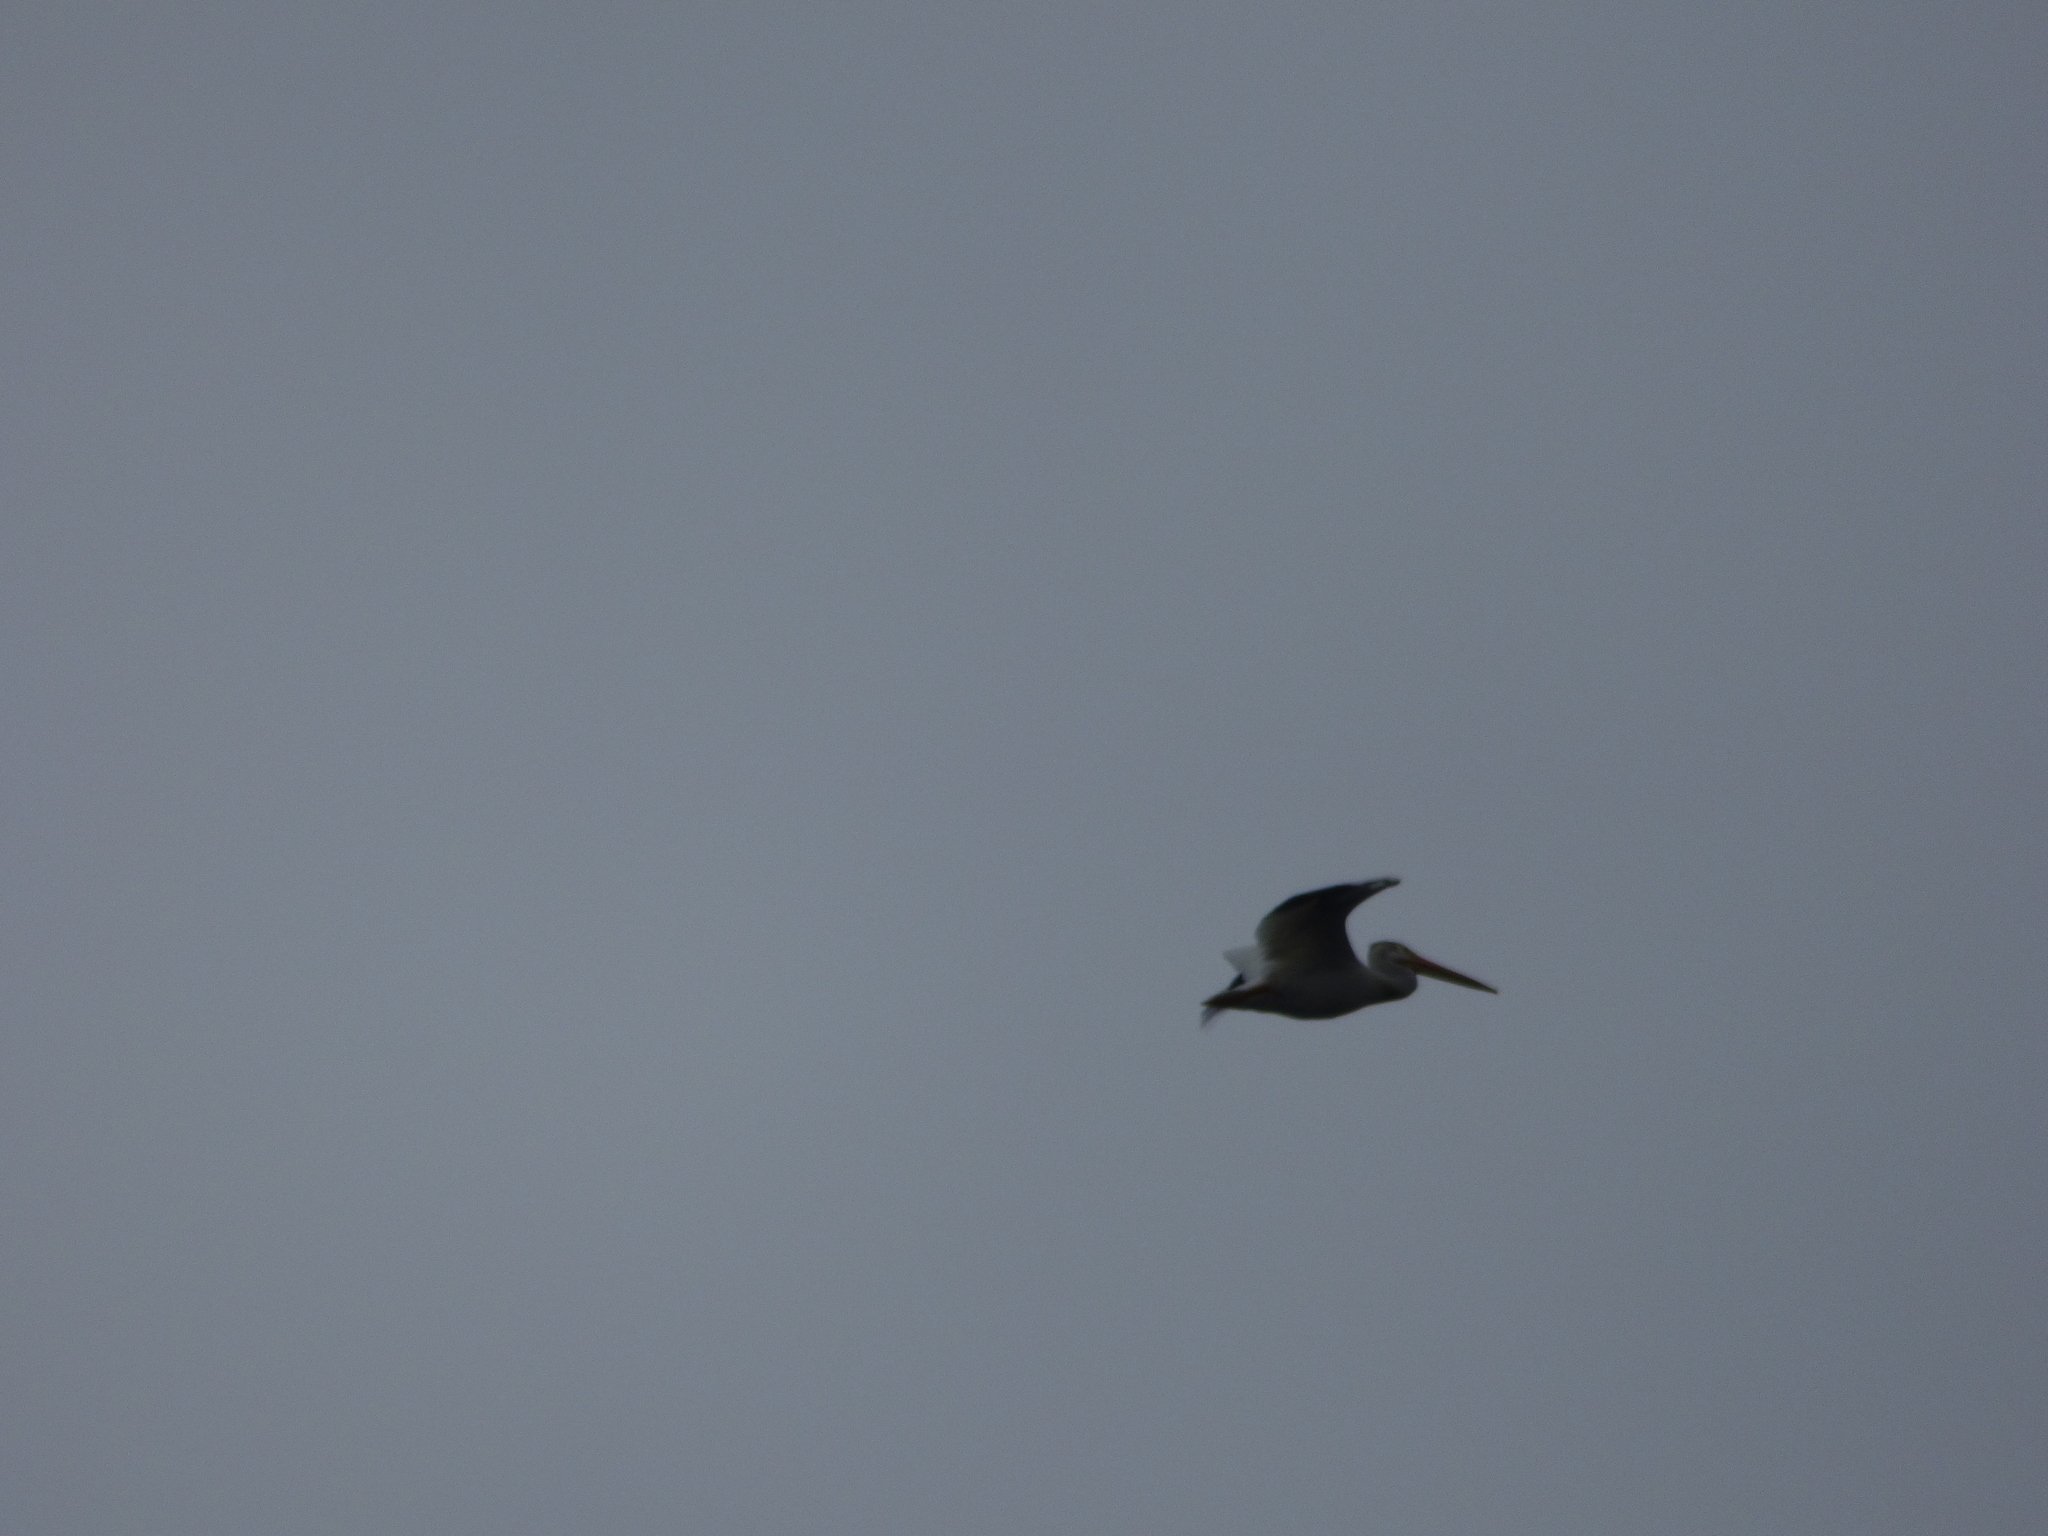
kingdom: Animalia
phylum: Chordata
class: Aves
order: Pelecaniformes
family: Pelecanidae
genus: Pelecanus
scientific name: Pelecanus erythrorhynchos
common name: American white pelican
